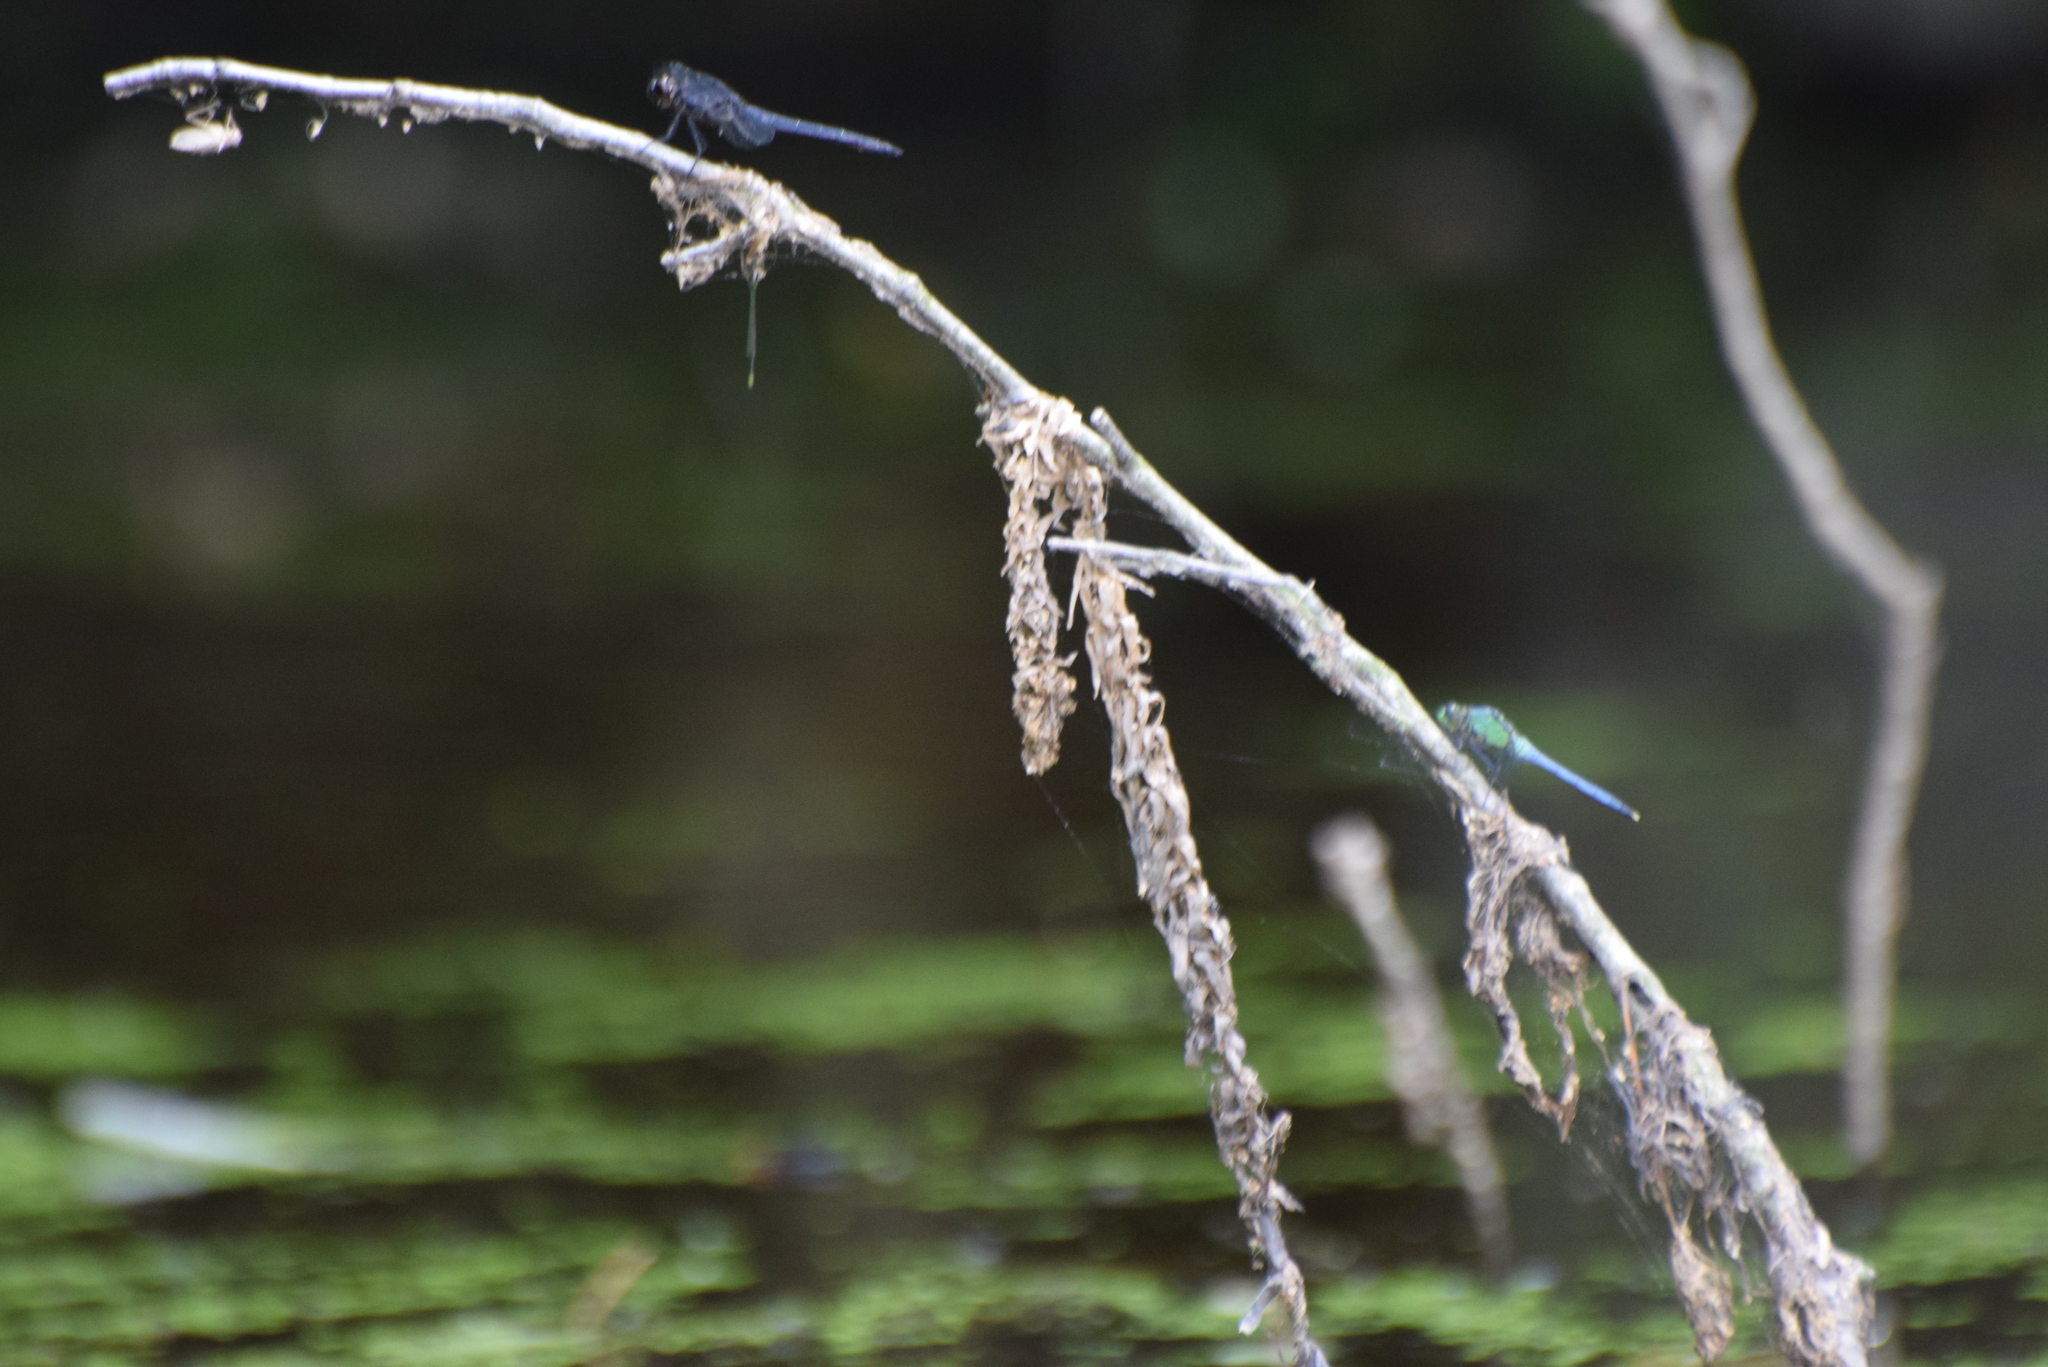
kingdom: Animalia
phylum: Arthropoda
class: Insecta
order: Odonata
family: Libellulidae
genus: Libellula
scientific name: Libellula incesta
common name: Slaty skimmer
